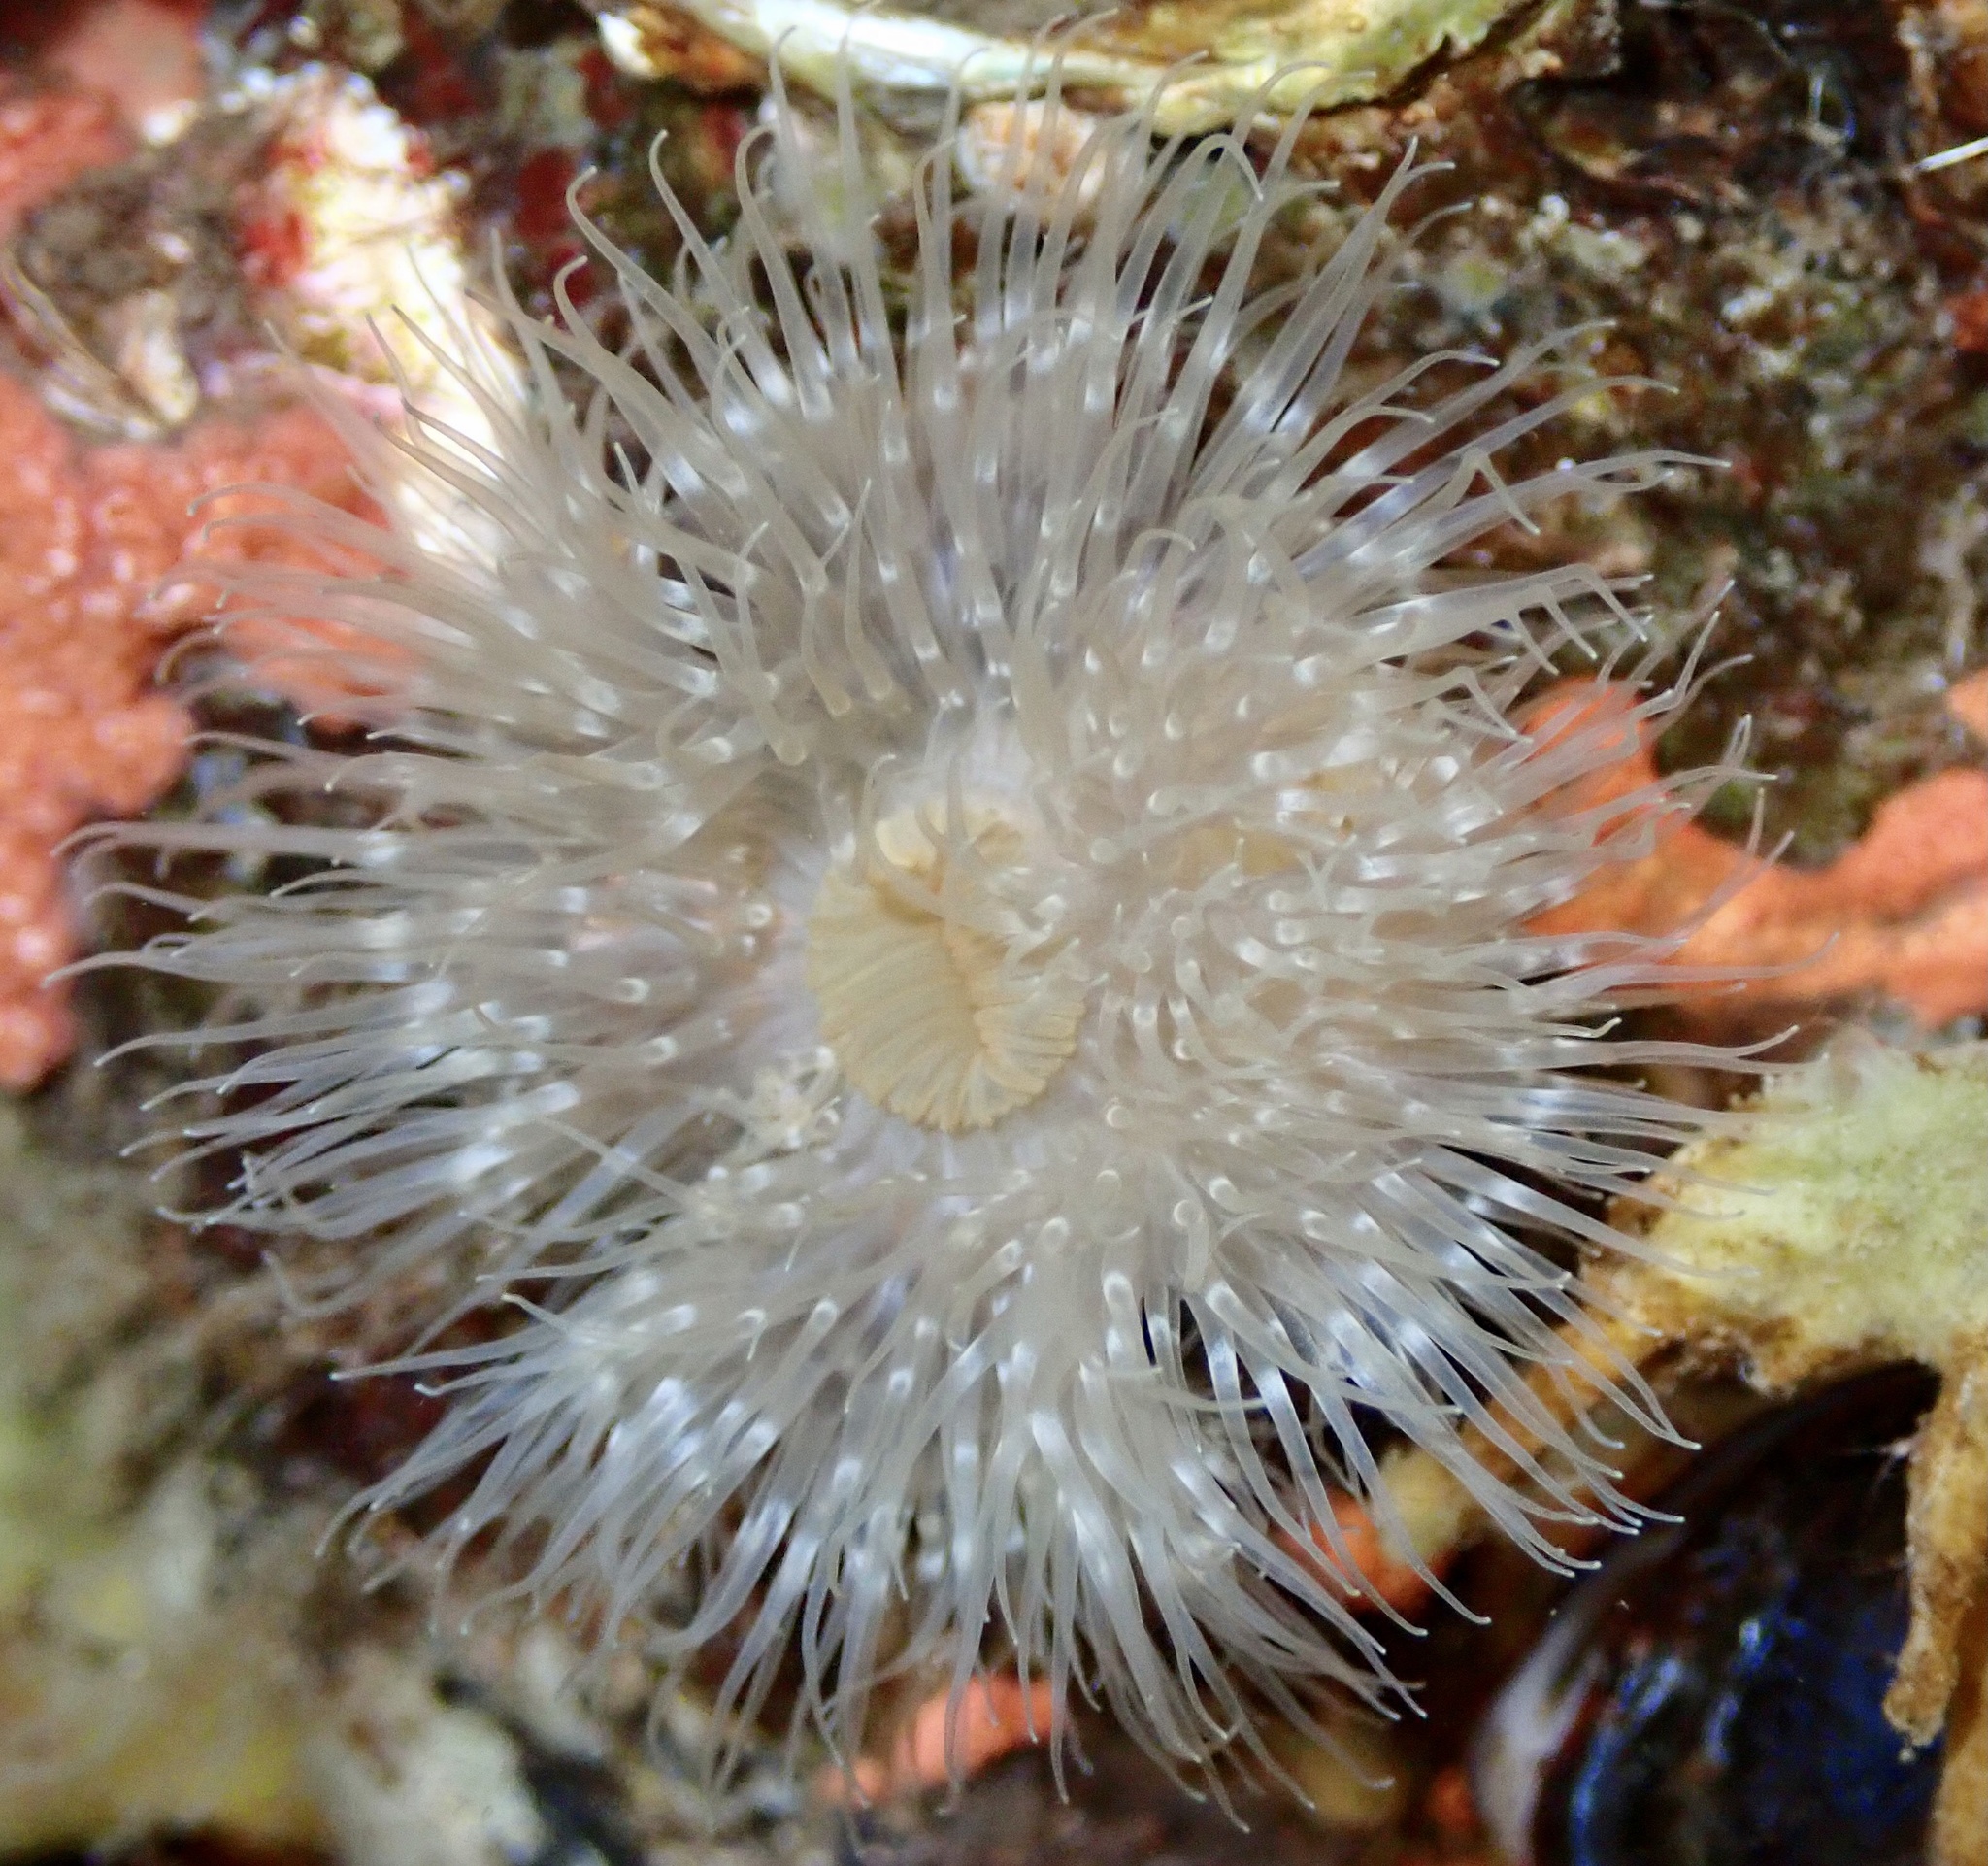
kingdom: Animalia
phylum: Cnidaria
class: Anthozoa
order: Actiniaria
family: Metridiidae
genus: Metridium
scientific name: Metridium senile
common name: Clonal plumose anemone
